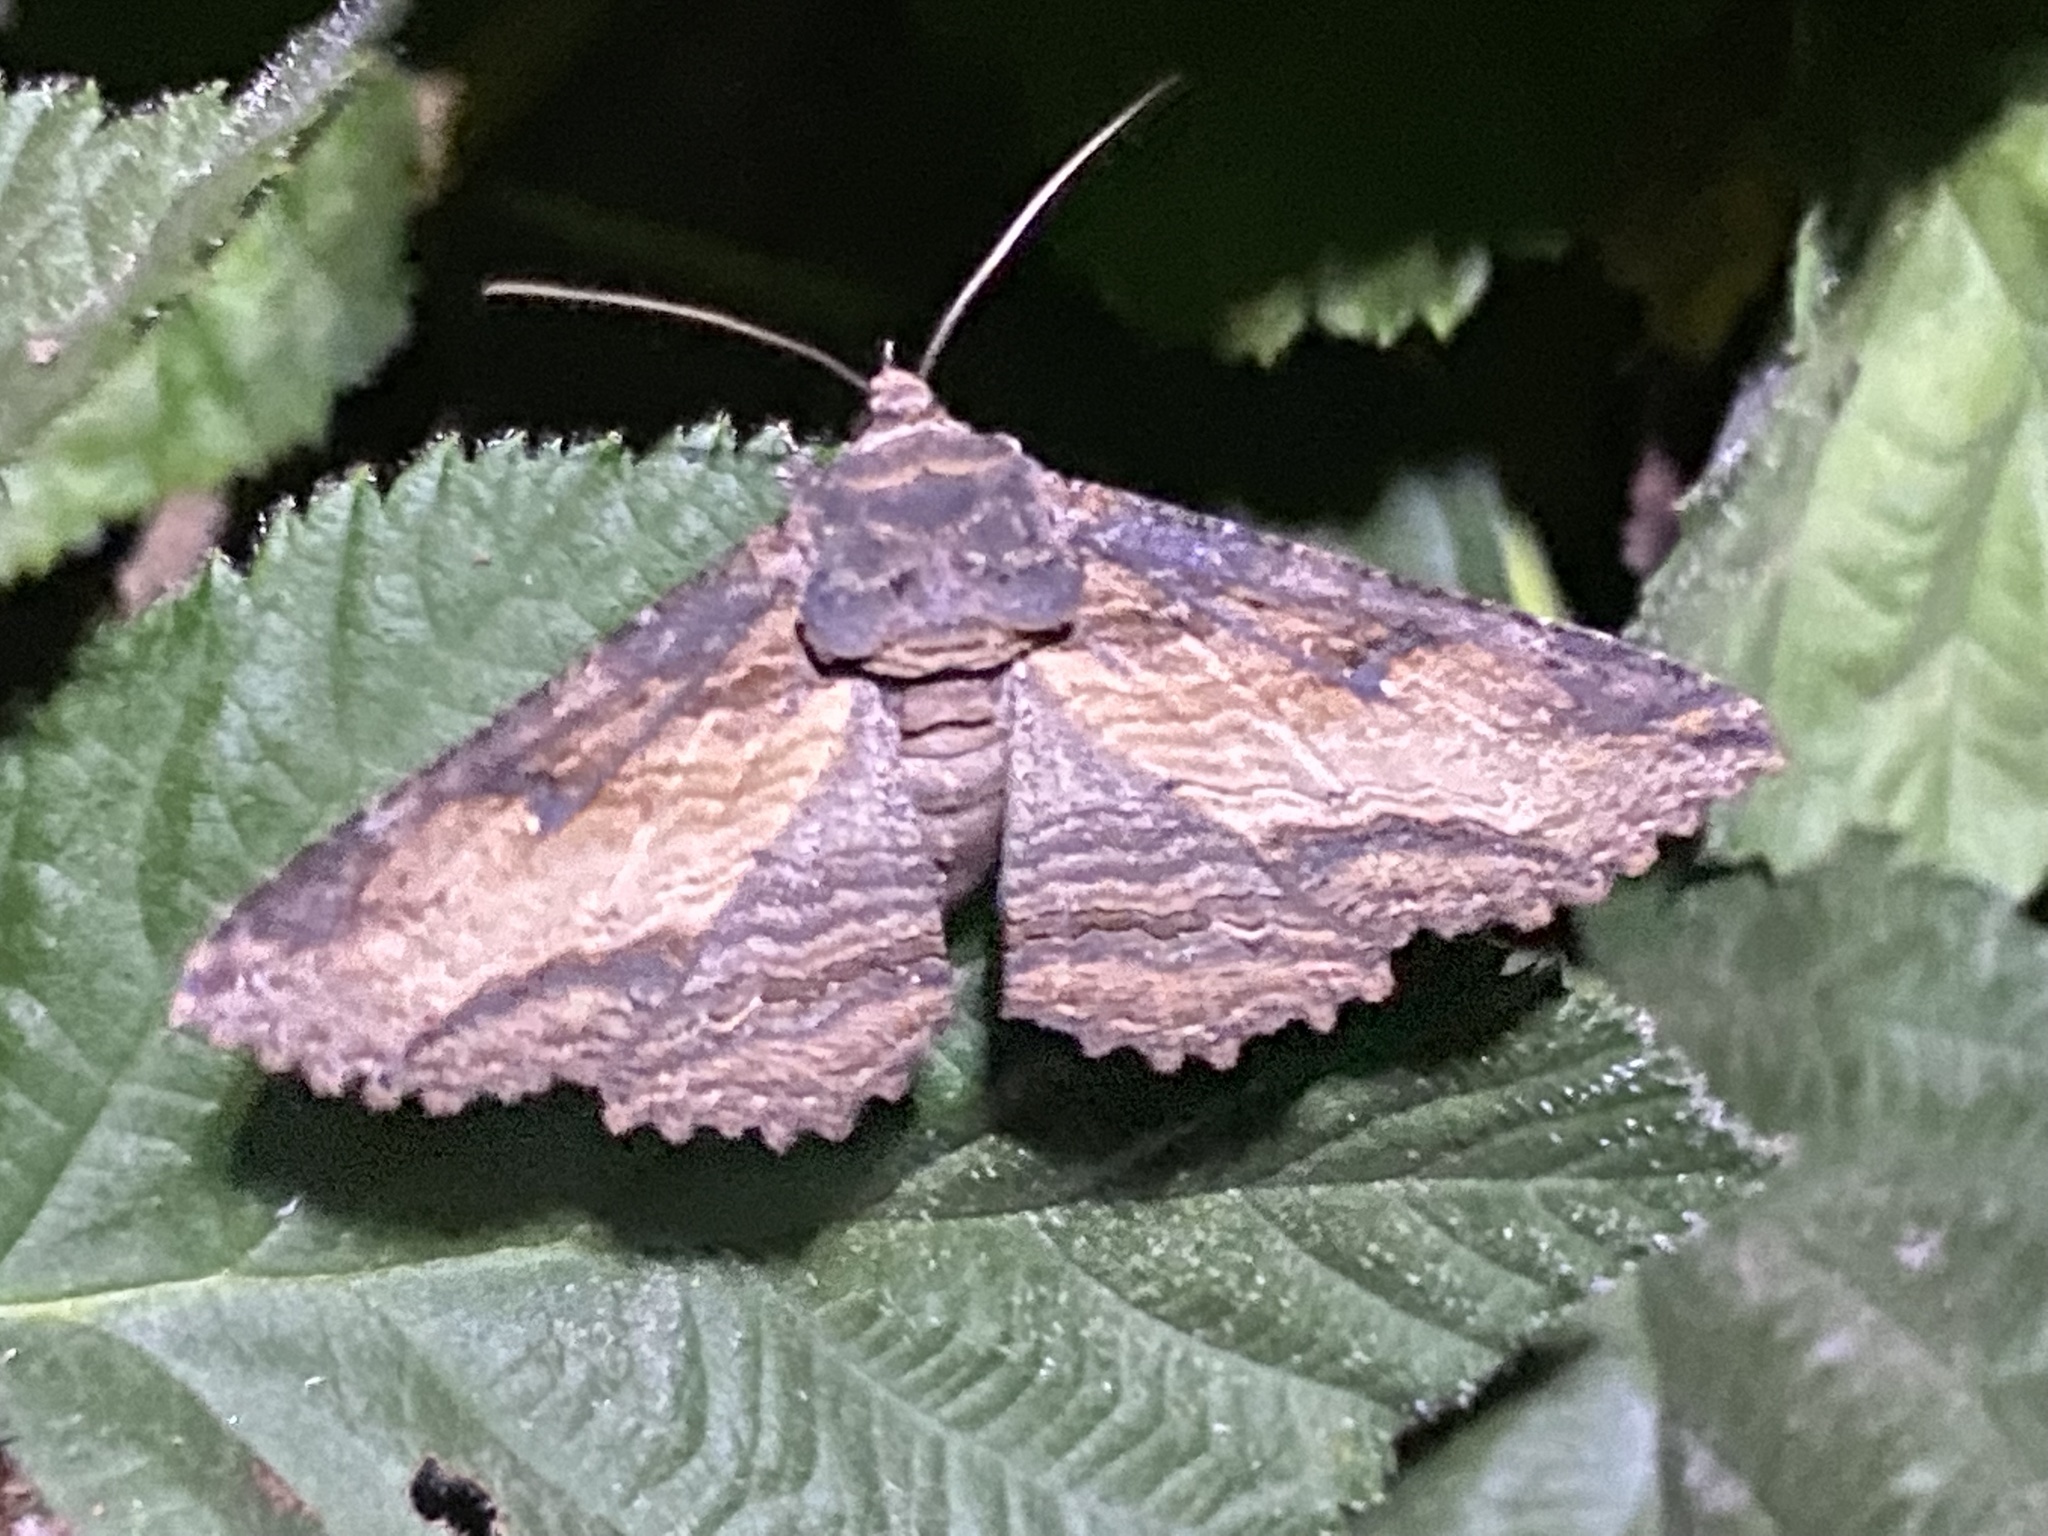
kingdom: Animalia
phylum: Arthropoda
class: Insecta
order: Lepidoptera
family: Erebidae
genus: Zale
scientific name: Zale lunata
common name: Lunate zale moth
